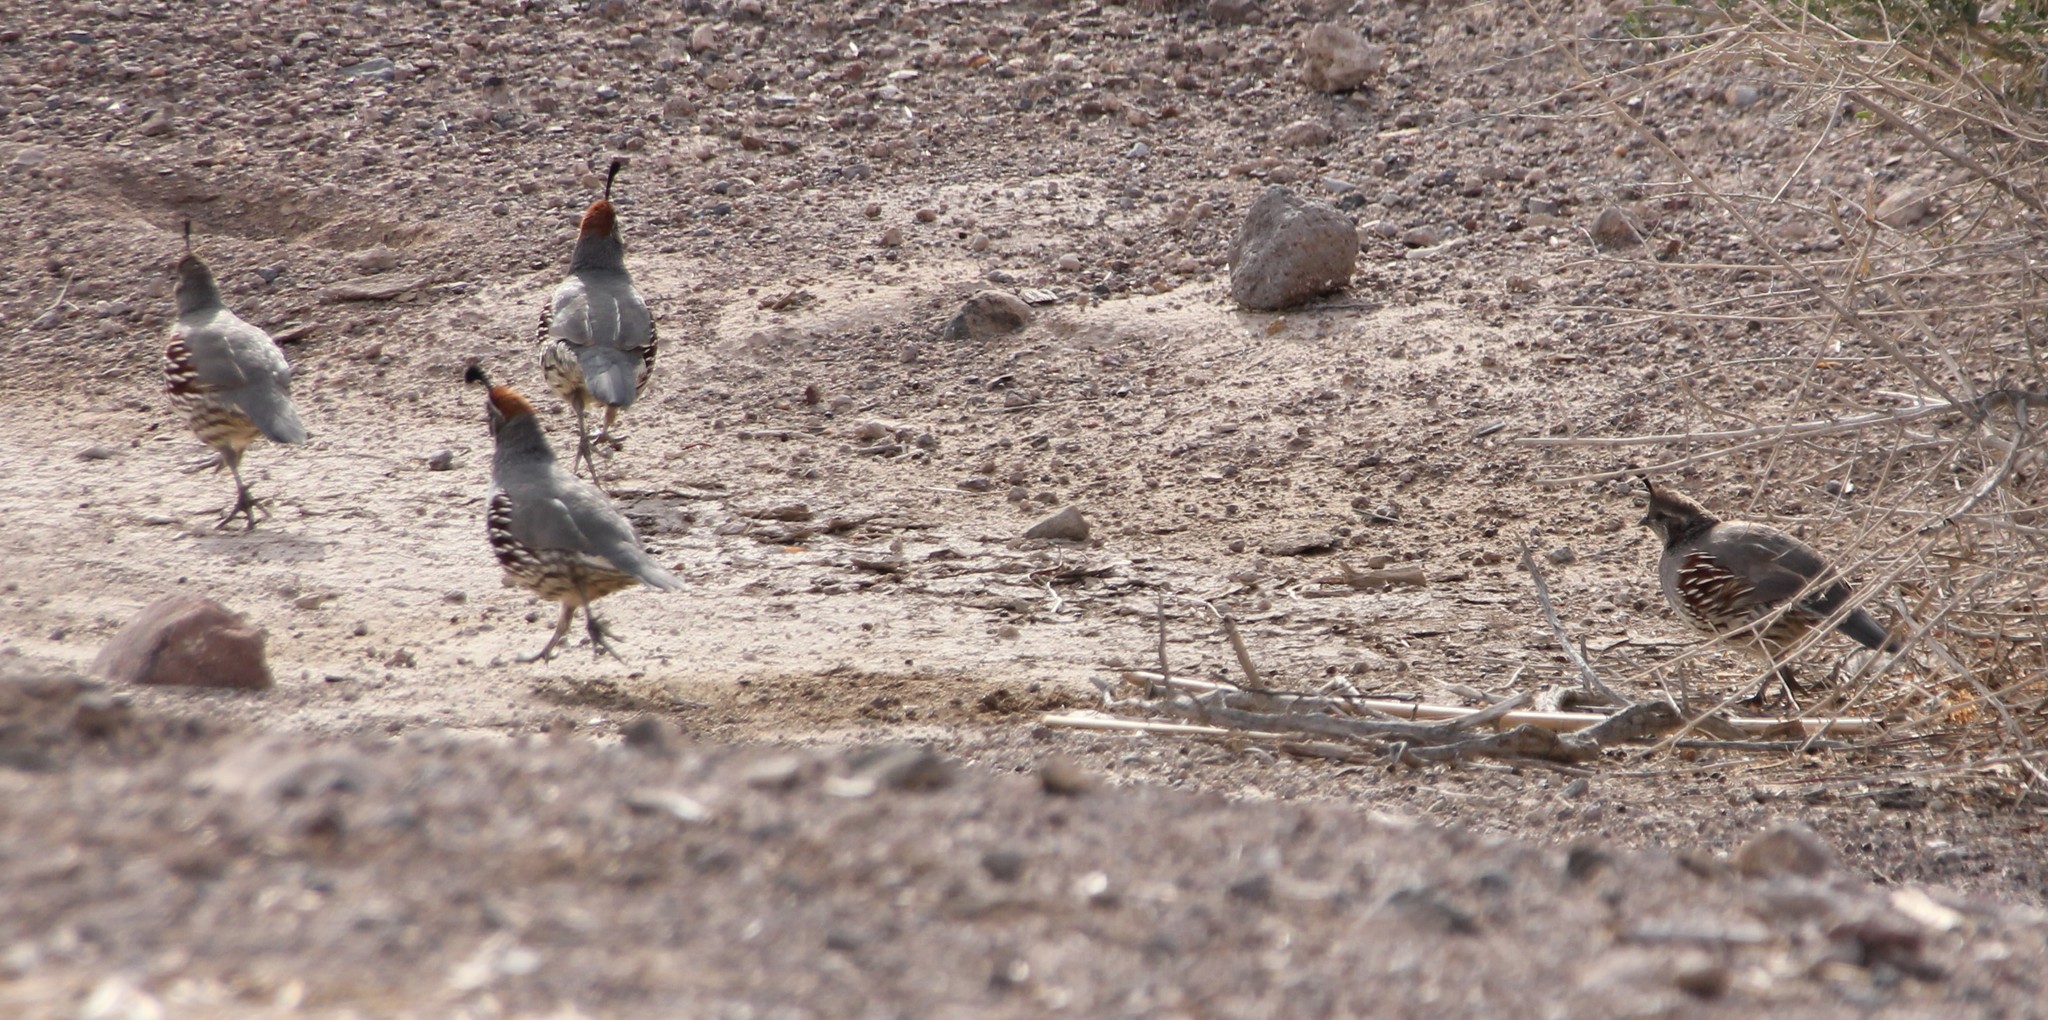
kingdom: Animalia
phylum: Chordata
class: Aves
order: Galliformes
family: Odontophoridae
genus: Callipepla
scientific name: Callipepla gambelii
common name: Gambel's quail
